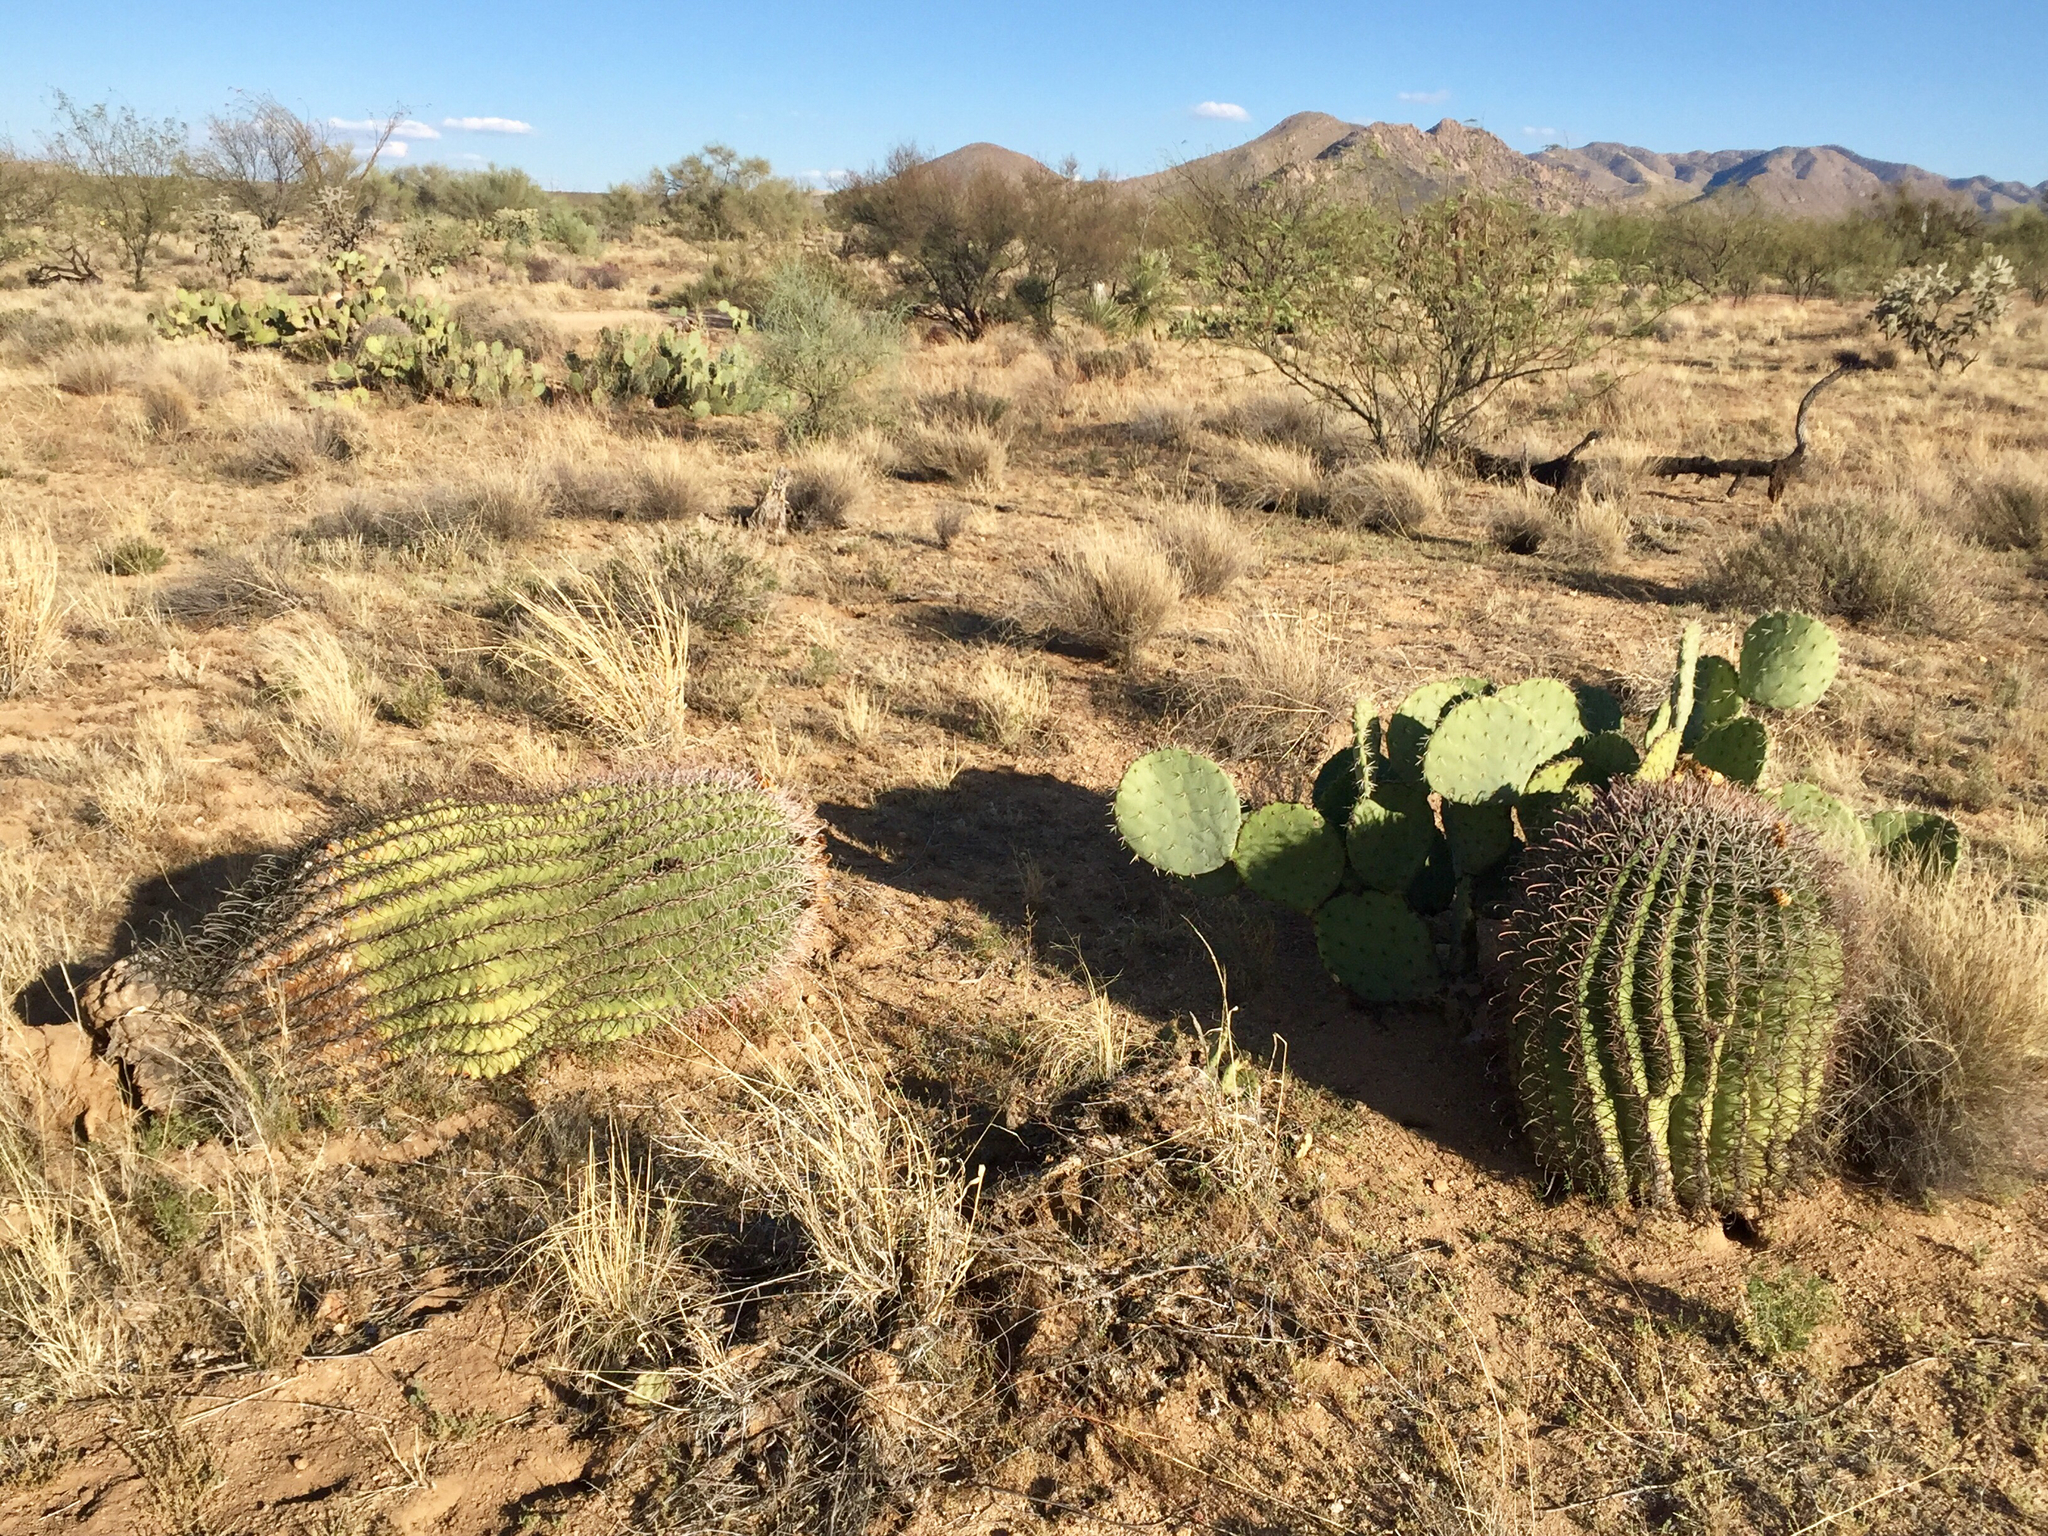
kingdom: Plantae
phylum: Tracheophyta
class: Magnoliopsida
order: Caryophyllales
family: Cactaceae
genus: Ferocactus
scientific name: Ferocactus wislizeni
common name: Candy barrel cactus
